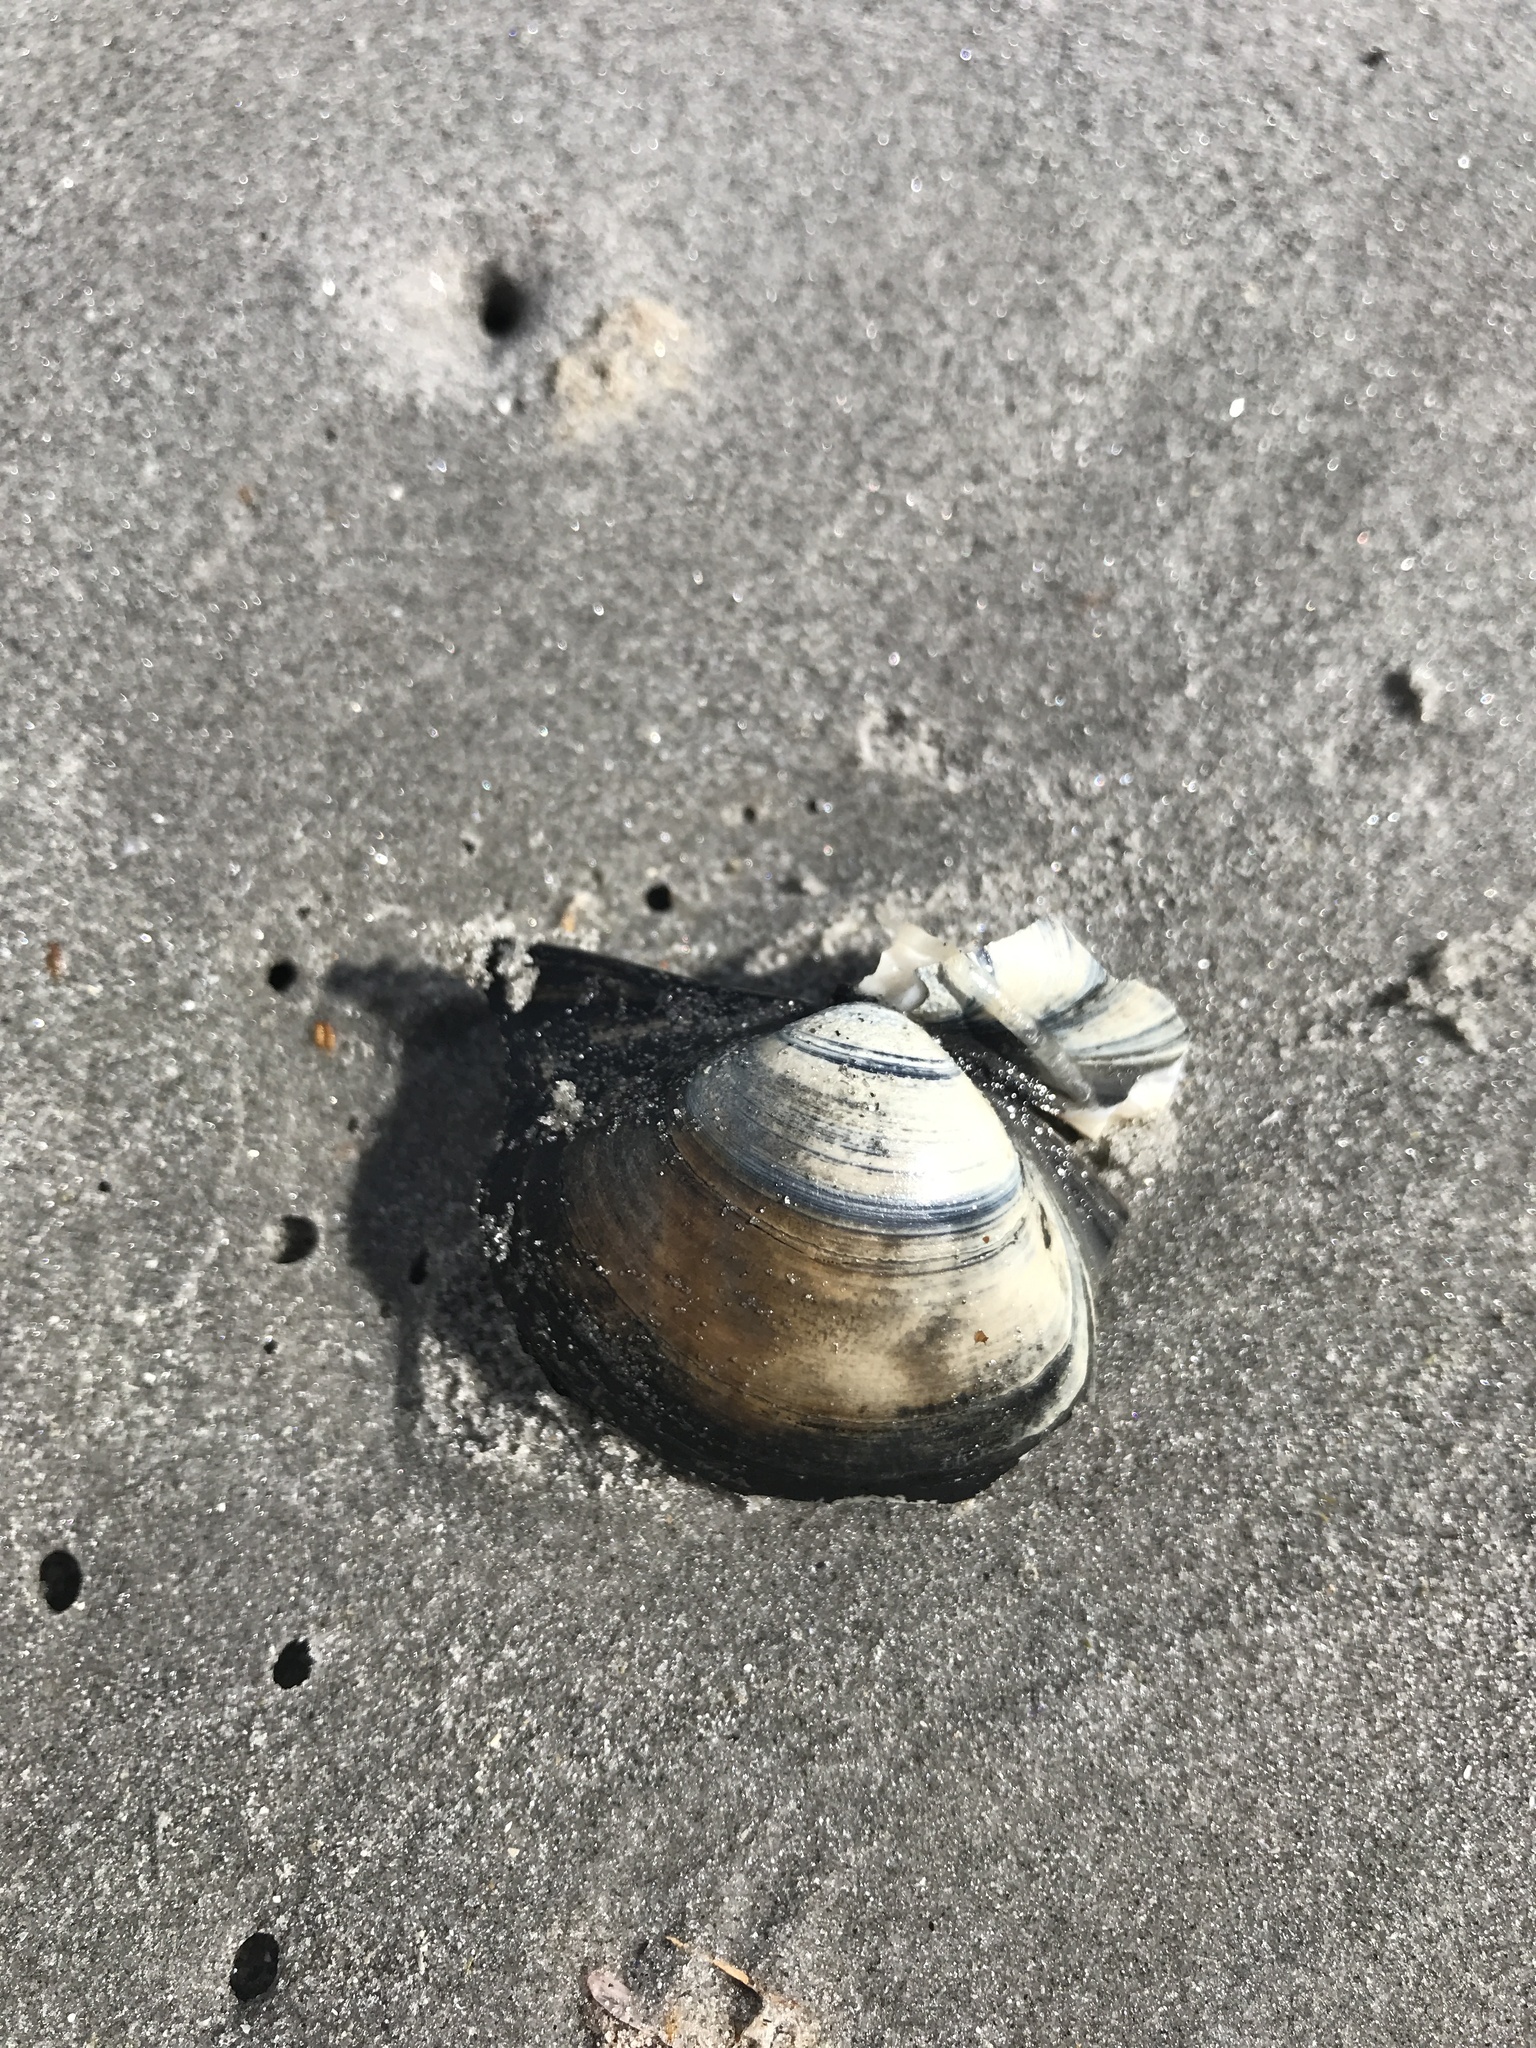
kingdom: Animalia
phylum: Mollusca
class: Bivalvia
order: Venerida
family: Mactridae
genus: Spisula
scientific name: Spisula solidissima
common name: Atlantic surf clam
